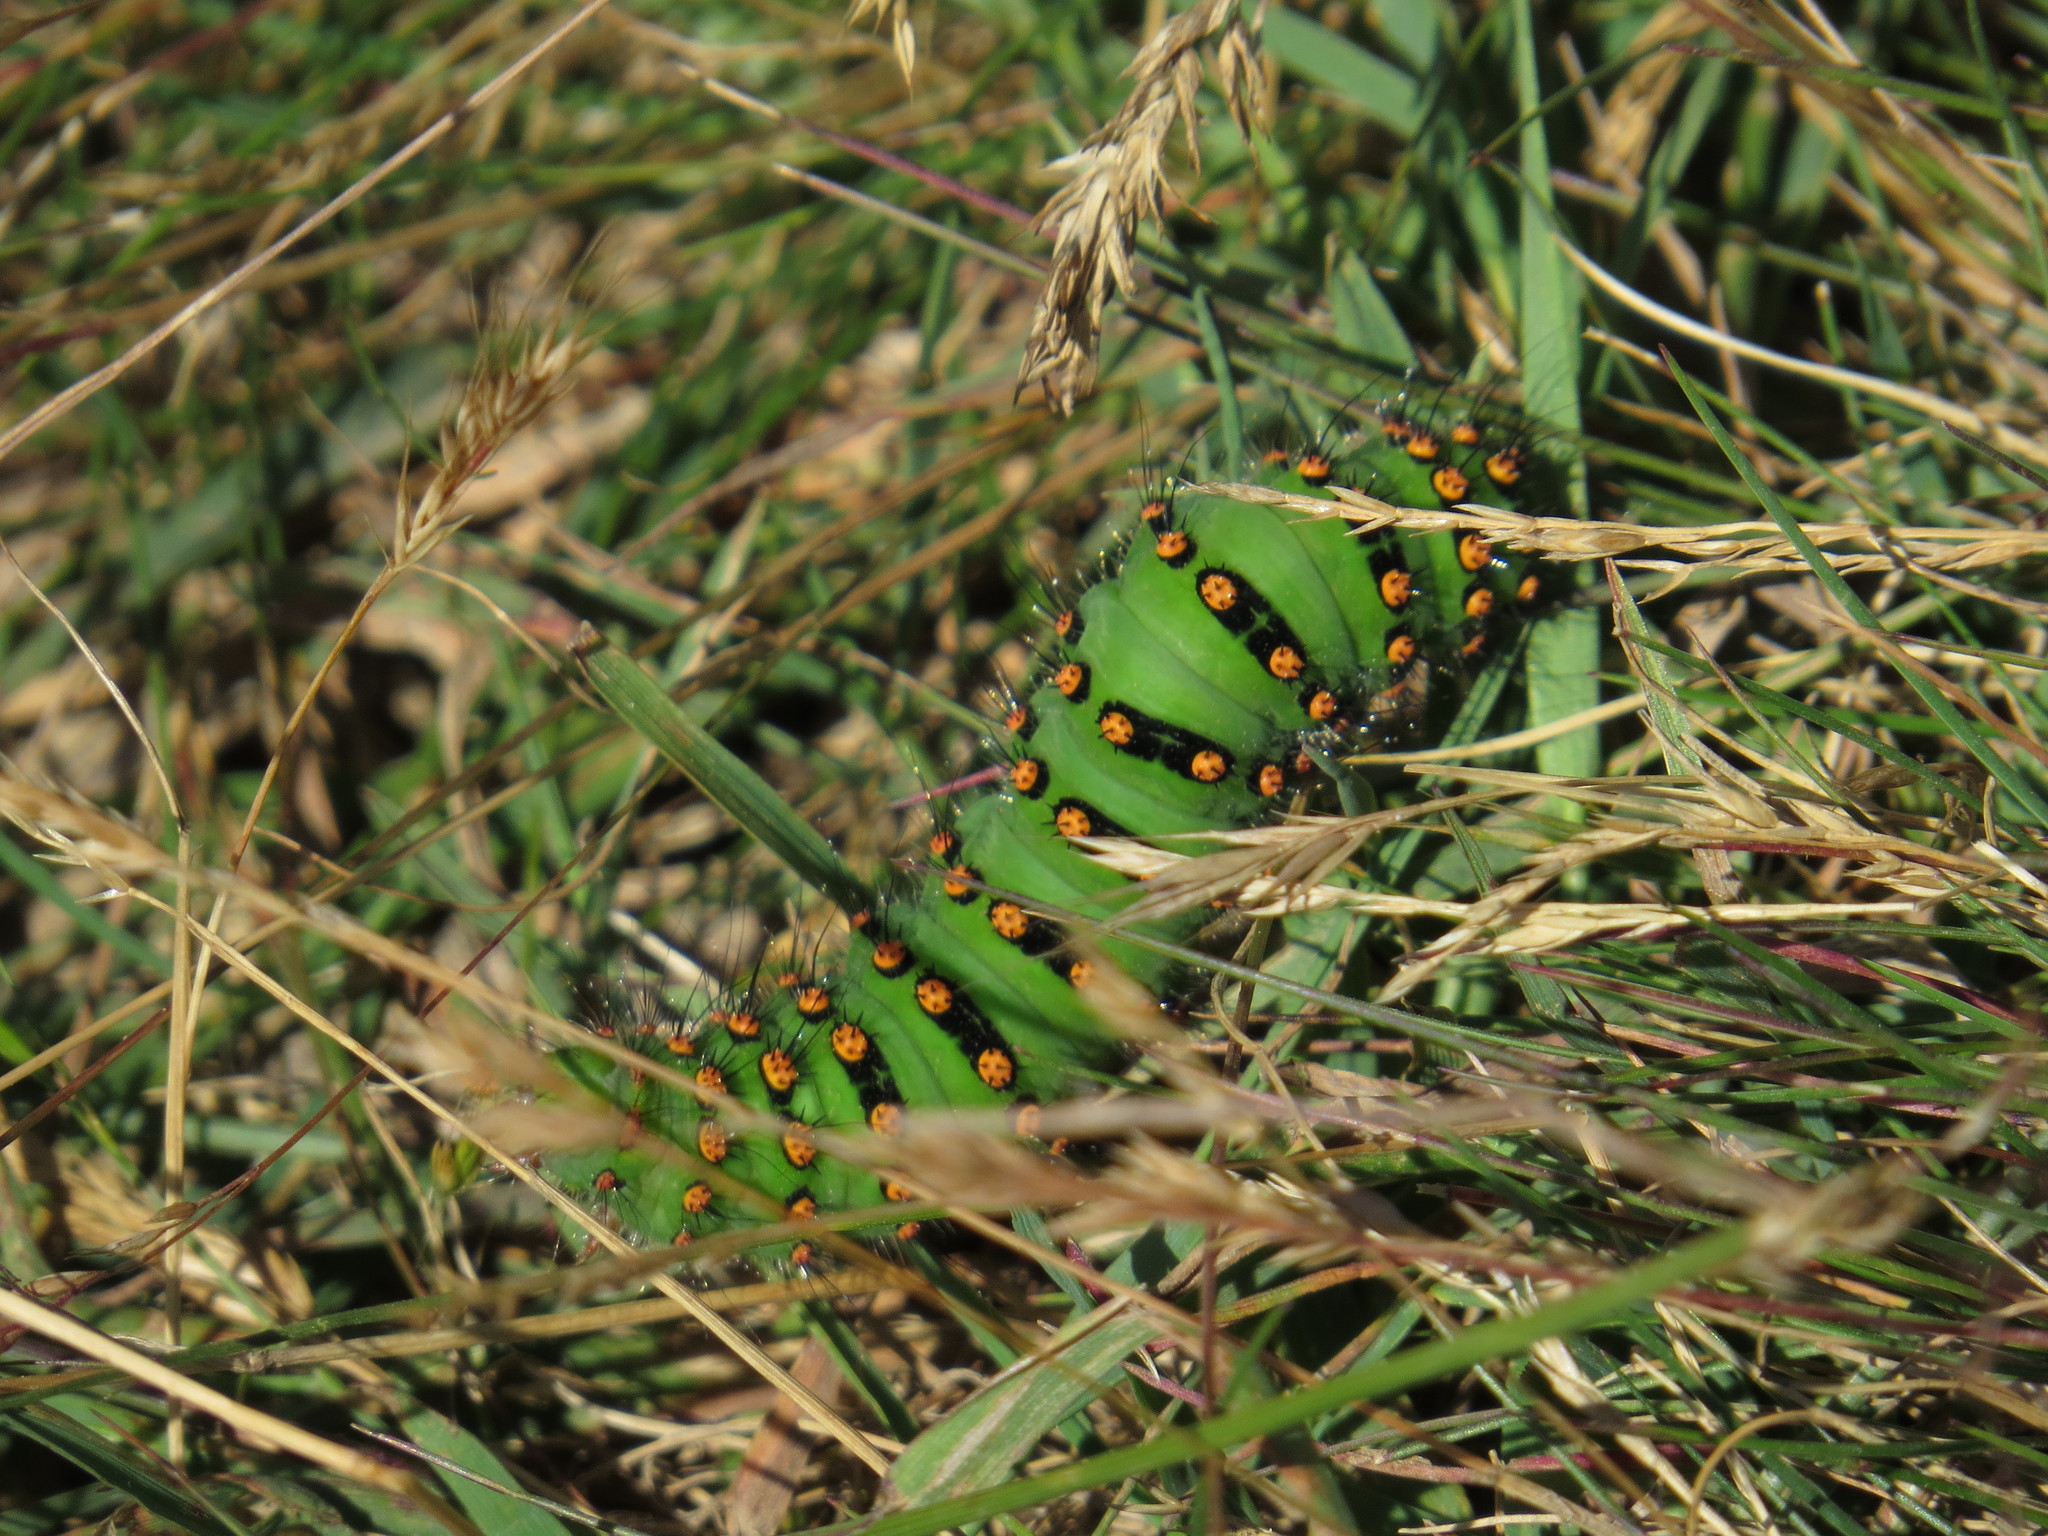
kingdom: Animalia
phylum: Arthropoda
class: Insecta
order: Lepidoptera
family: Saturniidae
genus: Saturnia
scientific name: Saturnia pavonia
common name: Emperor moth
